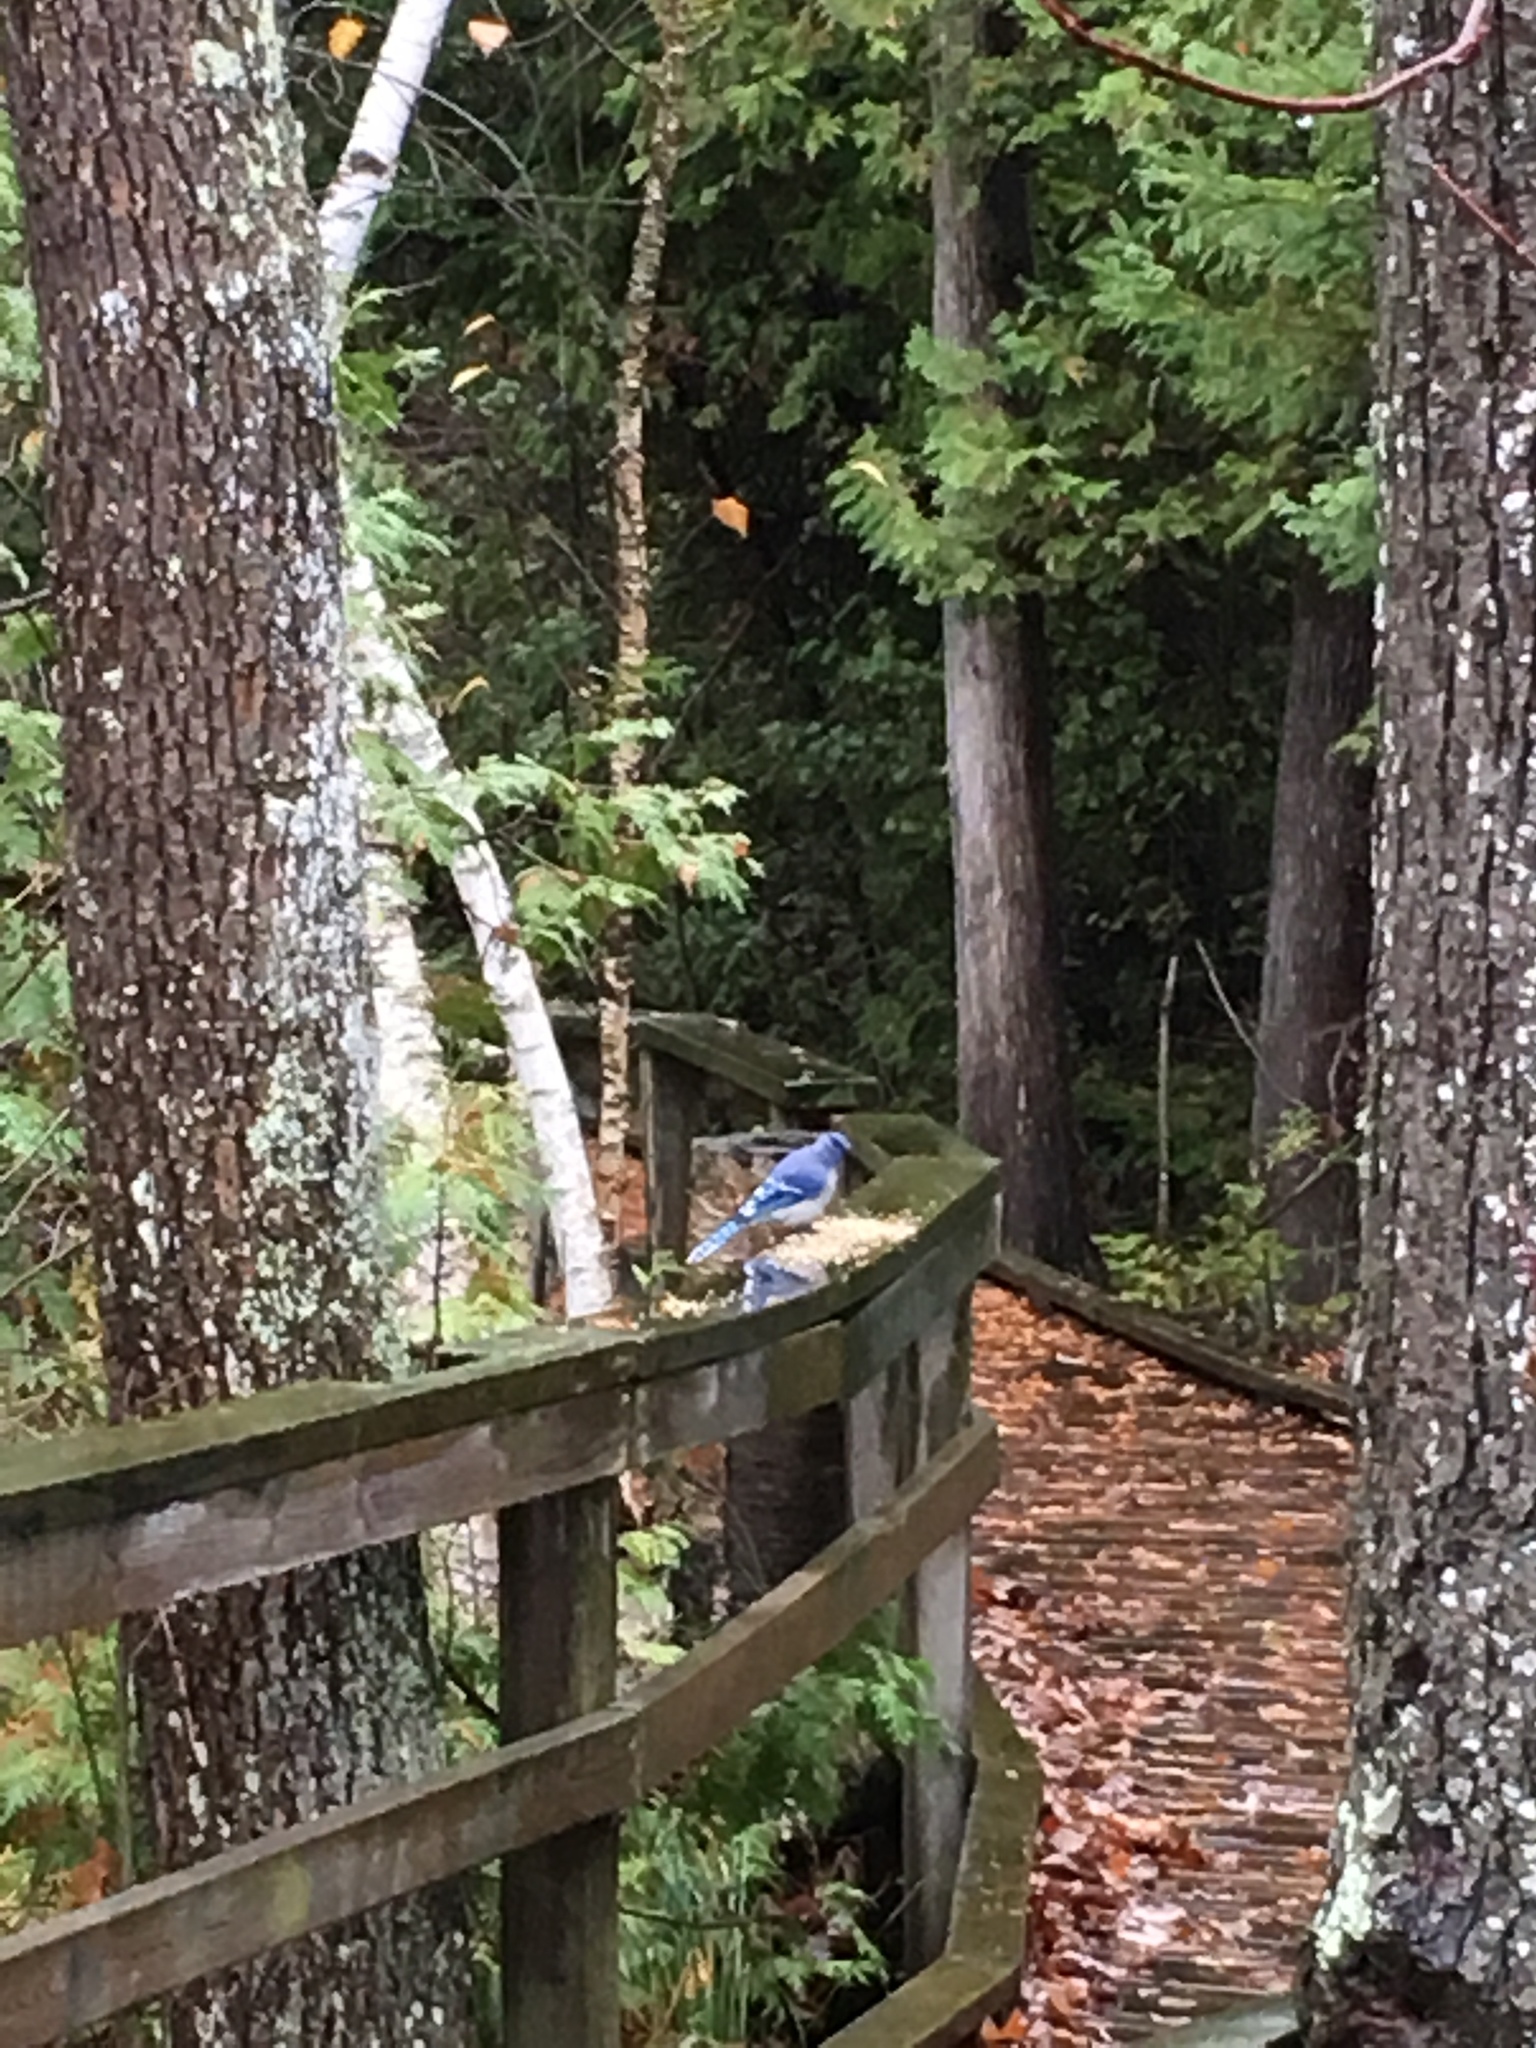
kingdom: Animalia
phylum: Chordata
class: Aves
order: Passeriformes
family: Corvidae
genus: Cyanocitta
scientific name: Cyanocitta cristata
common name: Blue jay
